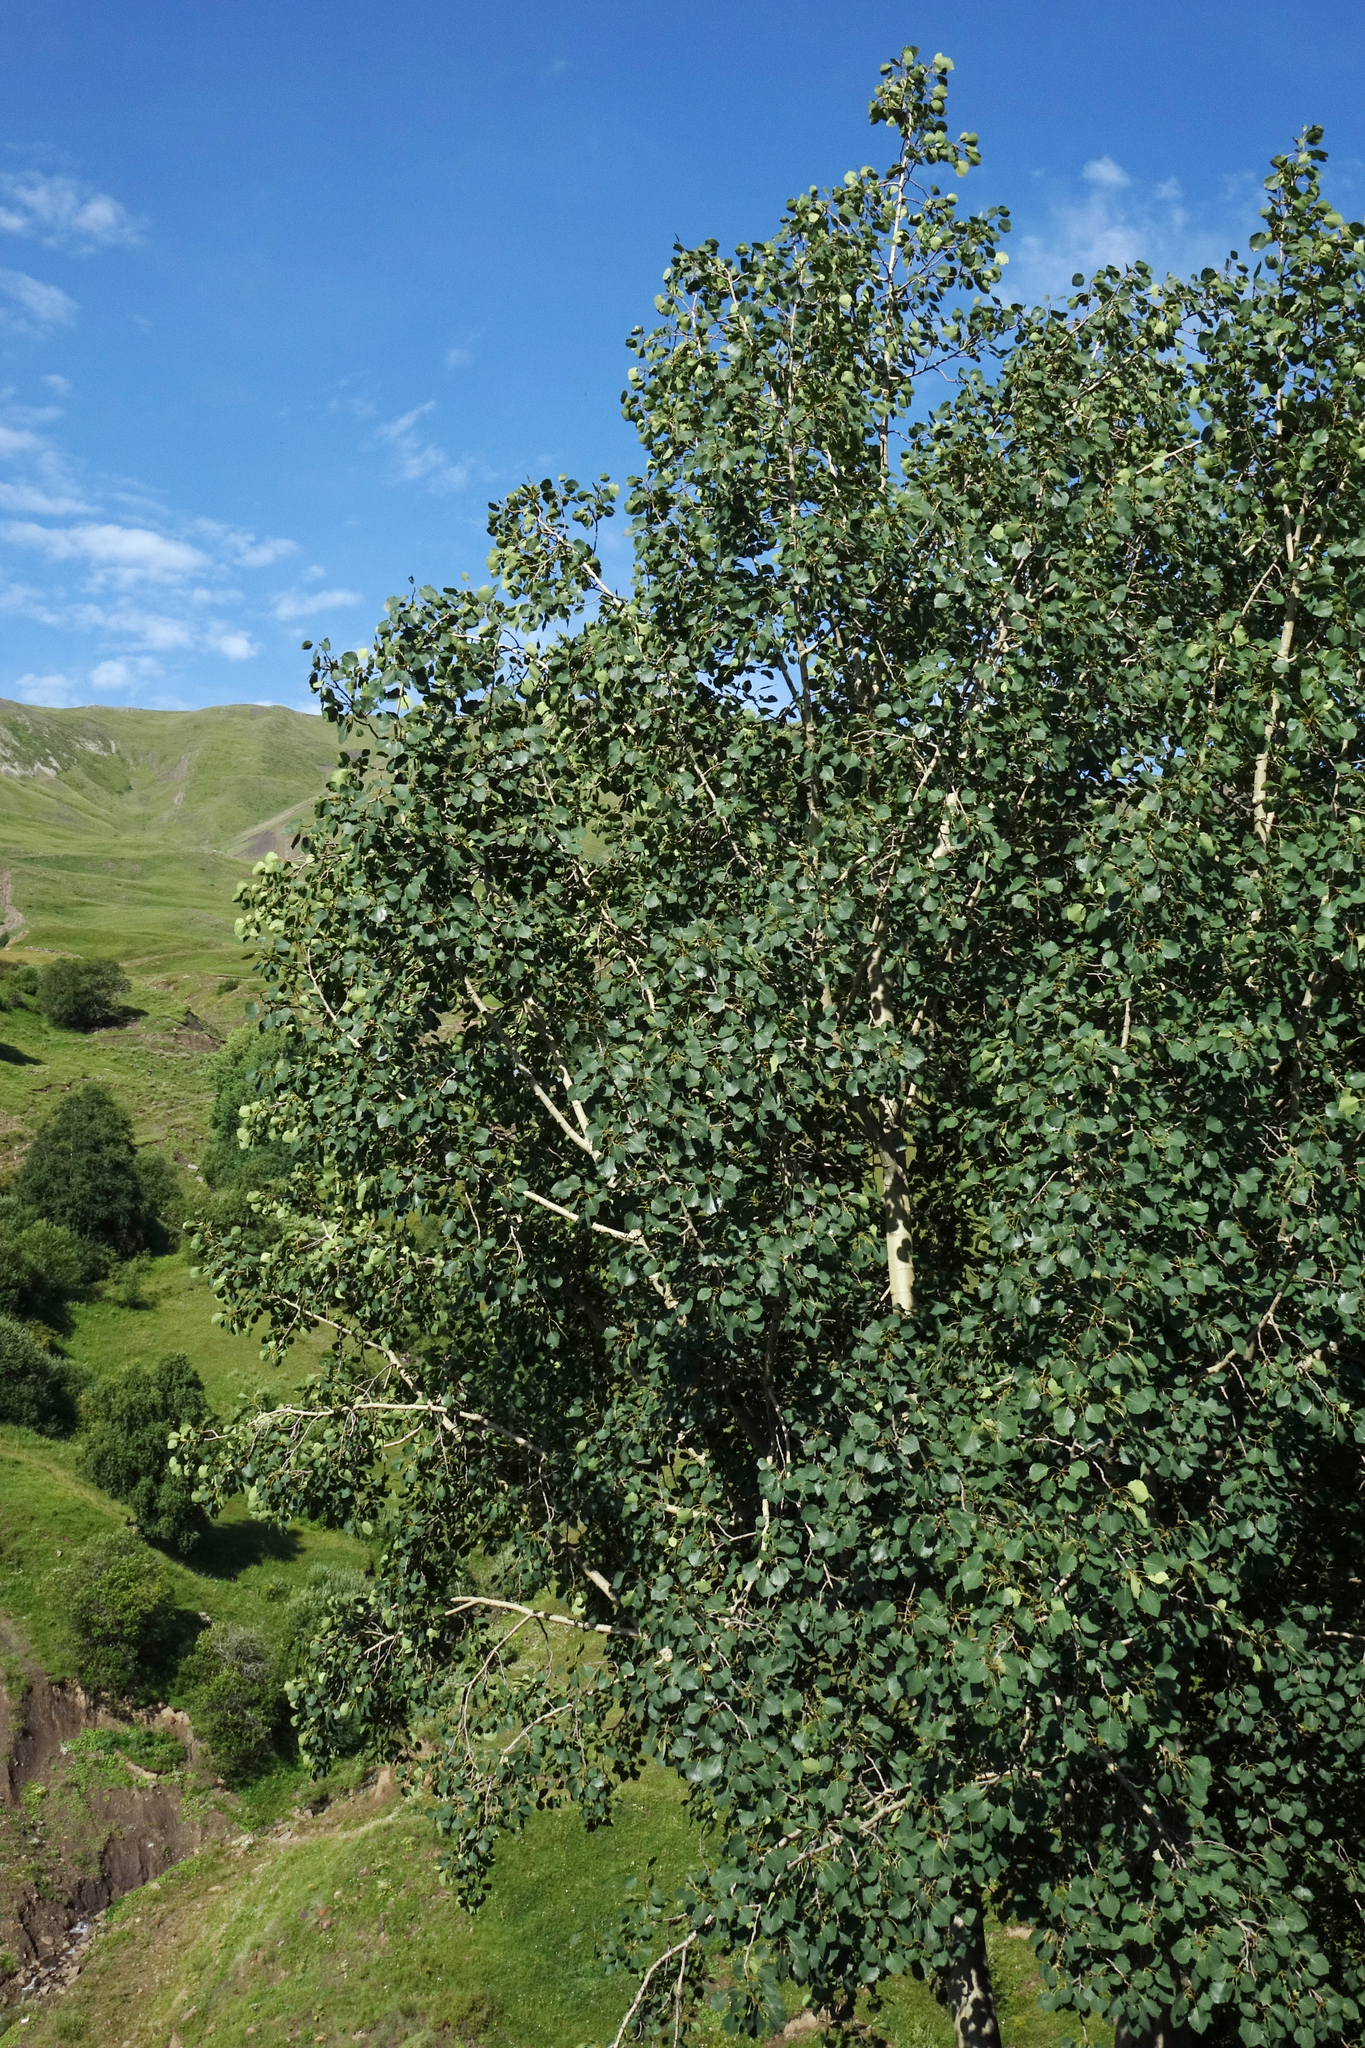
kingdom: Plantae
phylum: Tracheophyta
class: Magnoliopsida
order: Malpighiales
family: Salicaceae
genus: Populus
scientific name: Populus tremula
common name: European aspen
